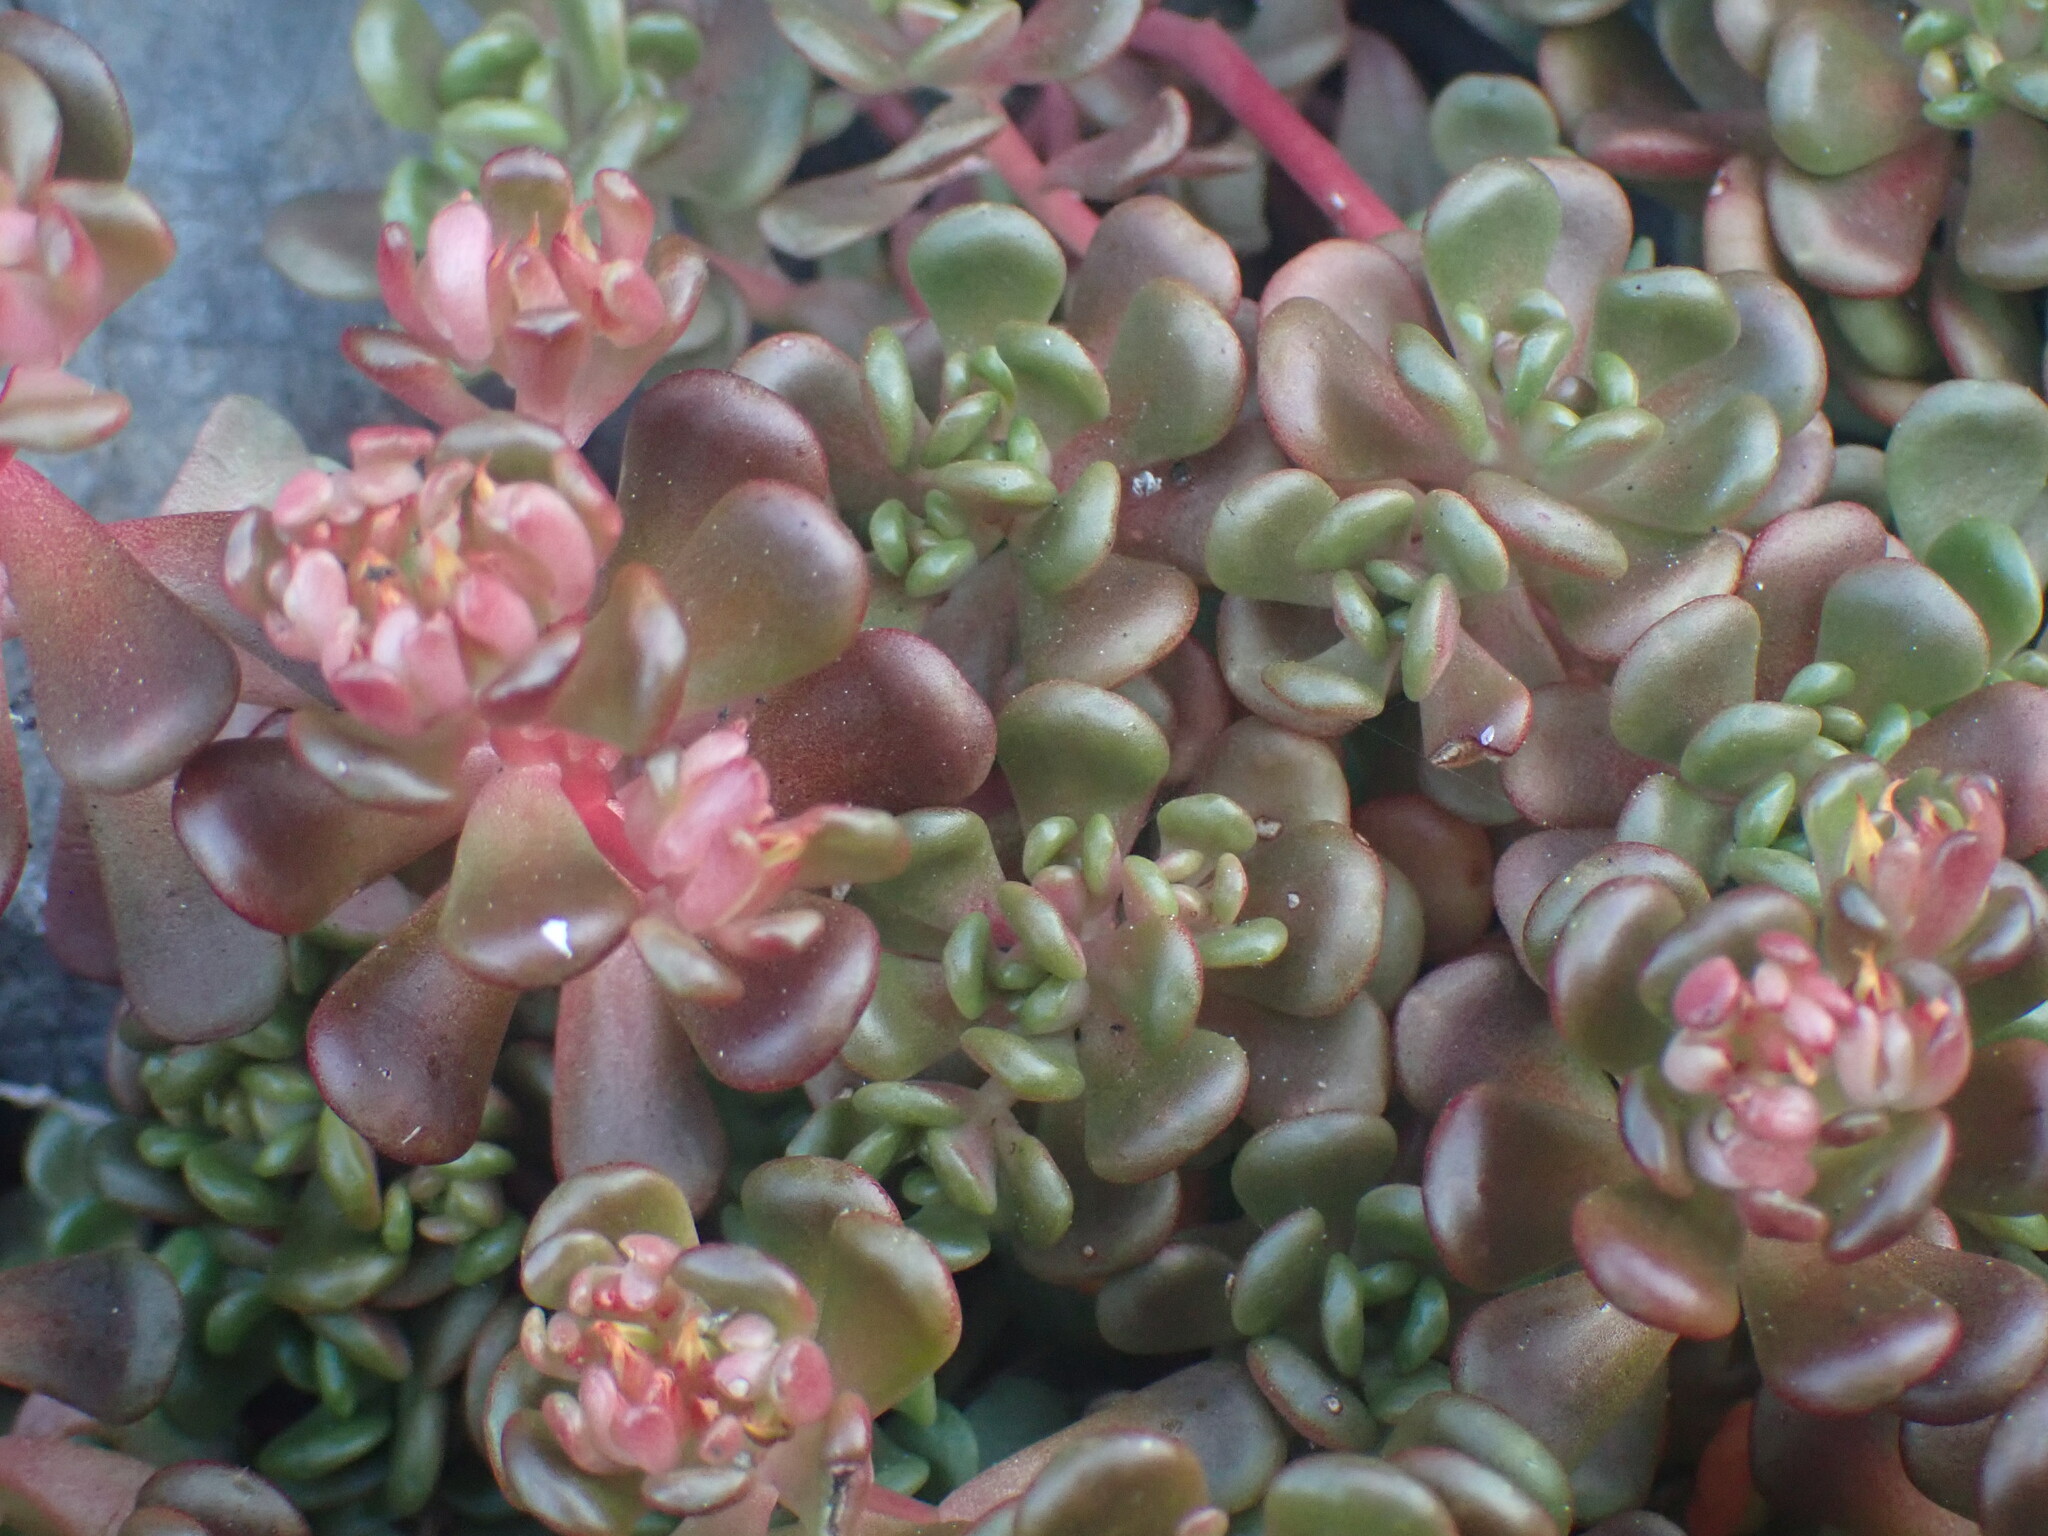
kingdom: Plantae
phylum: Tracheophyta
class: Magnoliopsida
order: Saxifragales
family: Crassulaceae
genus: Sedum
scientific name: Sedum oreganum
